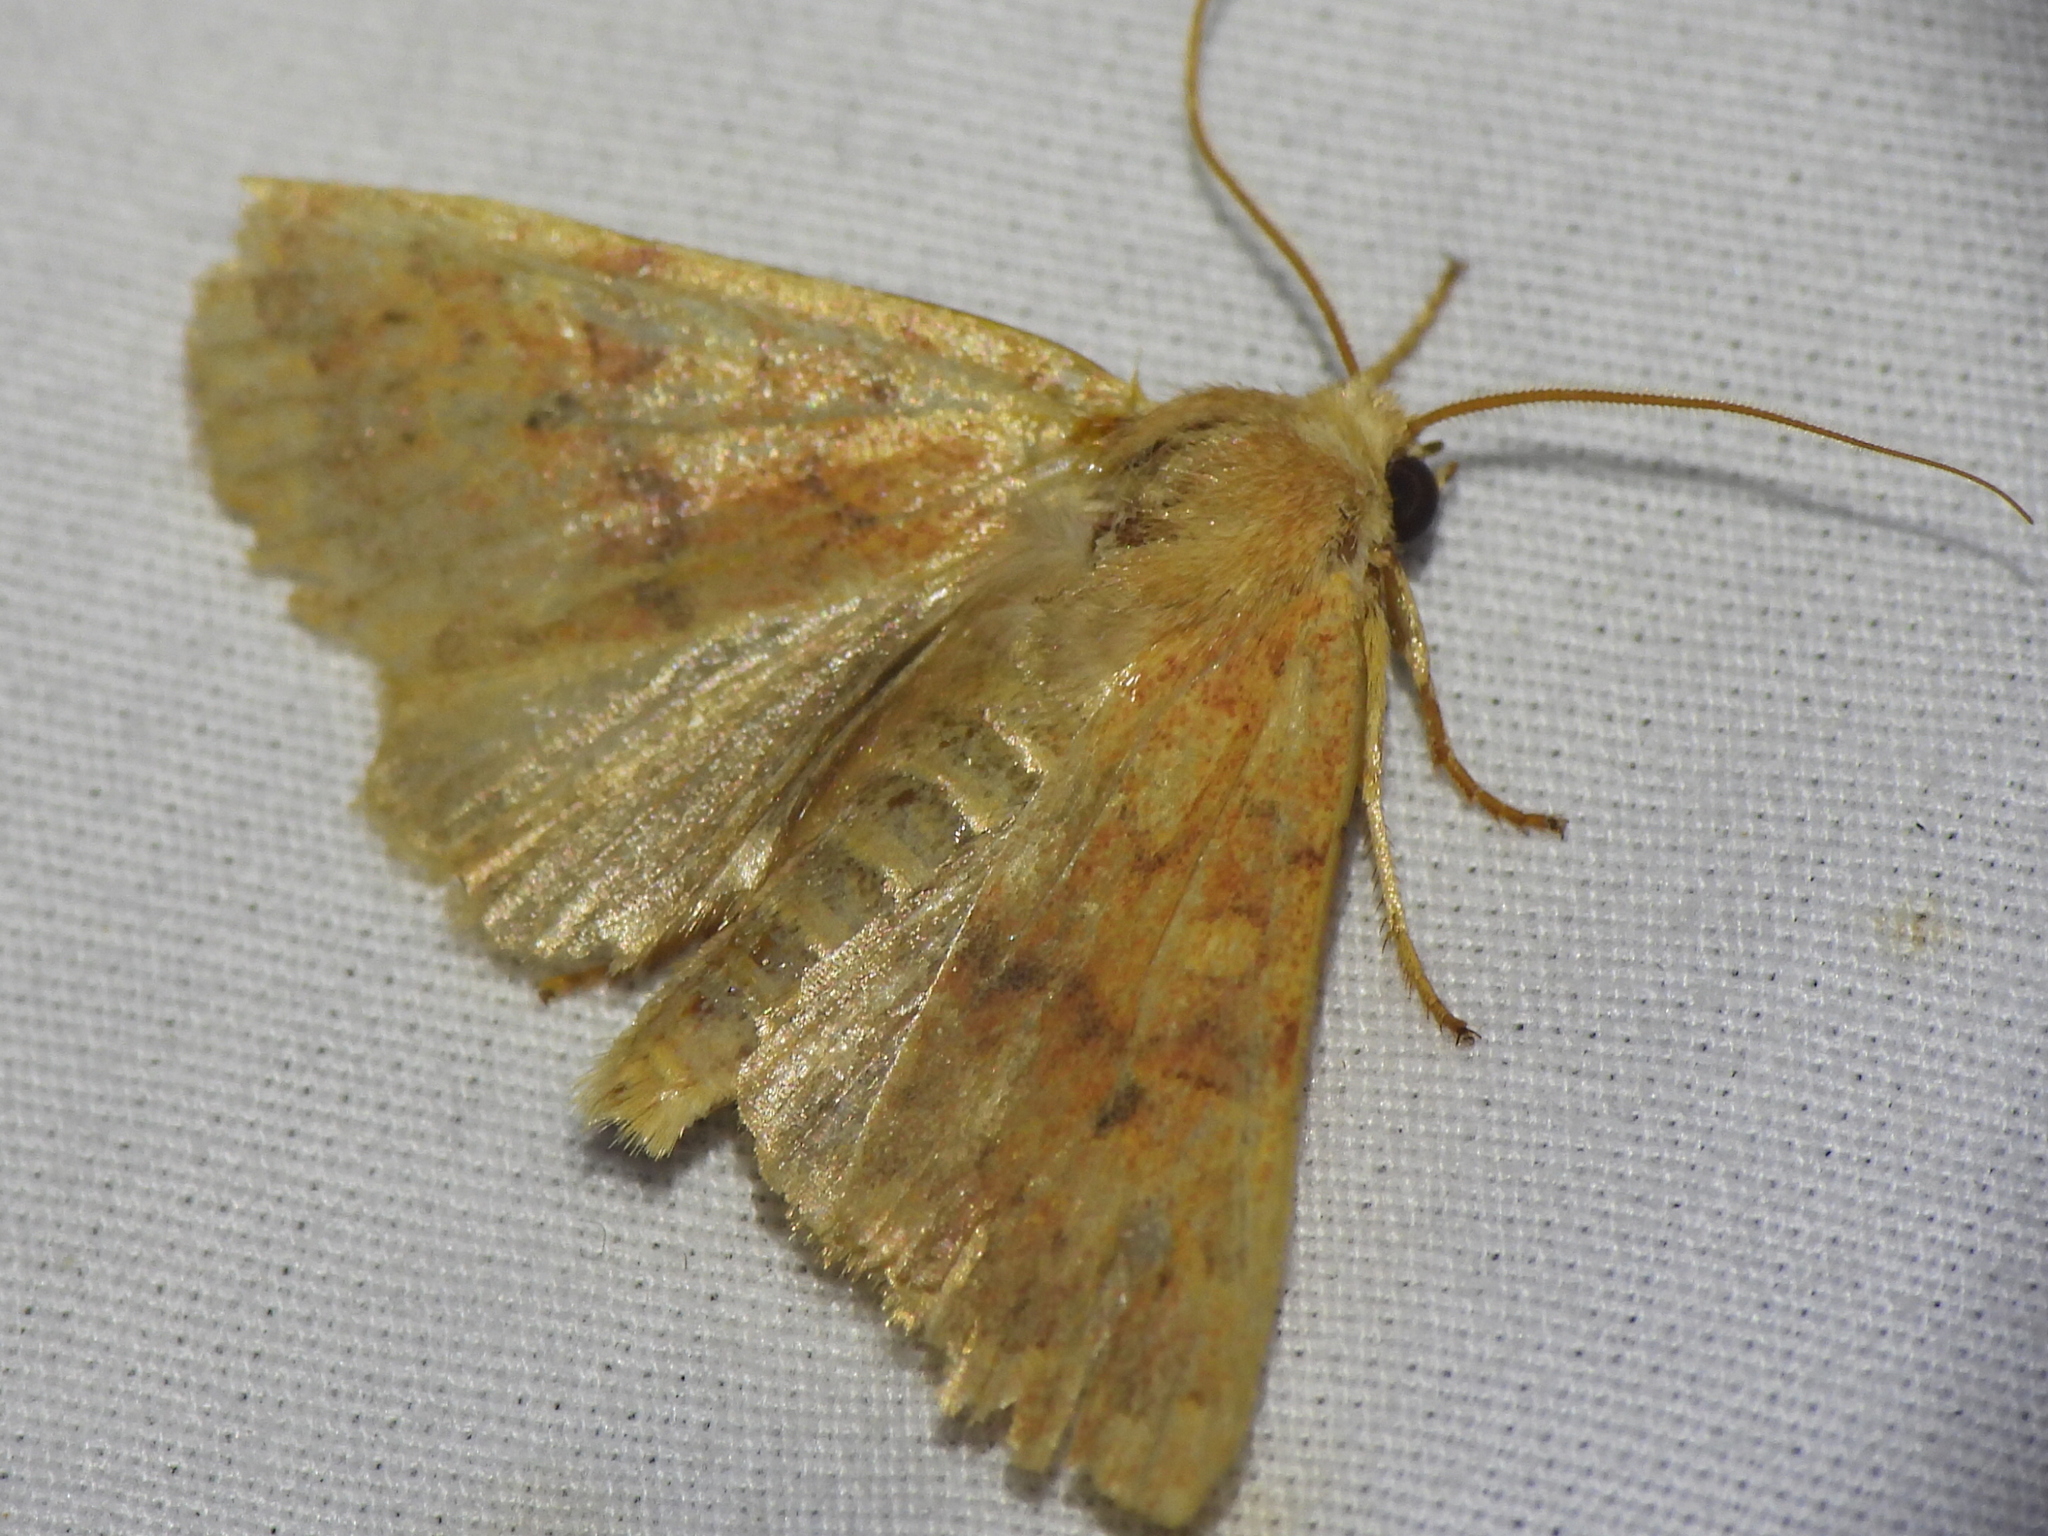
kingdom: Animalia
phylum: Arthropoda
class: Insecta
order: Lepidoptera
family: Noctuidae
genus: Agrochola
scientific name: Agrochola bicolorago
